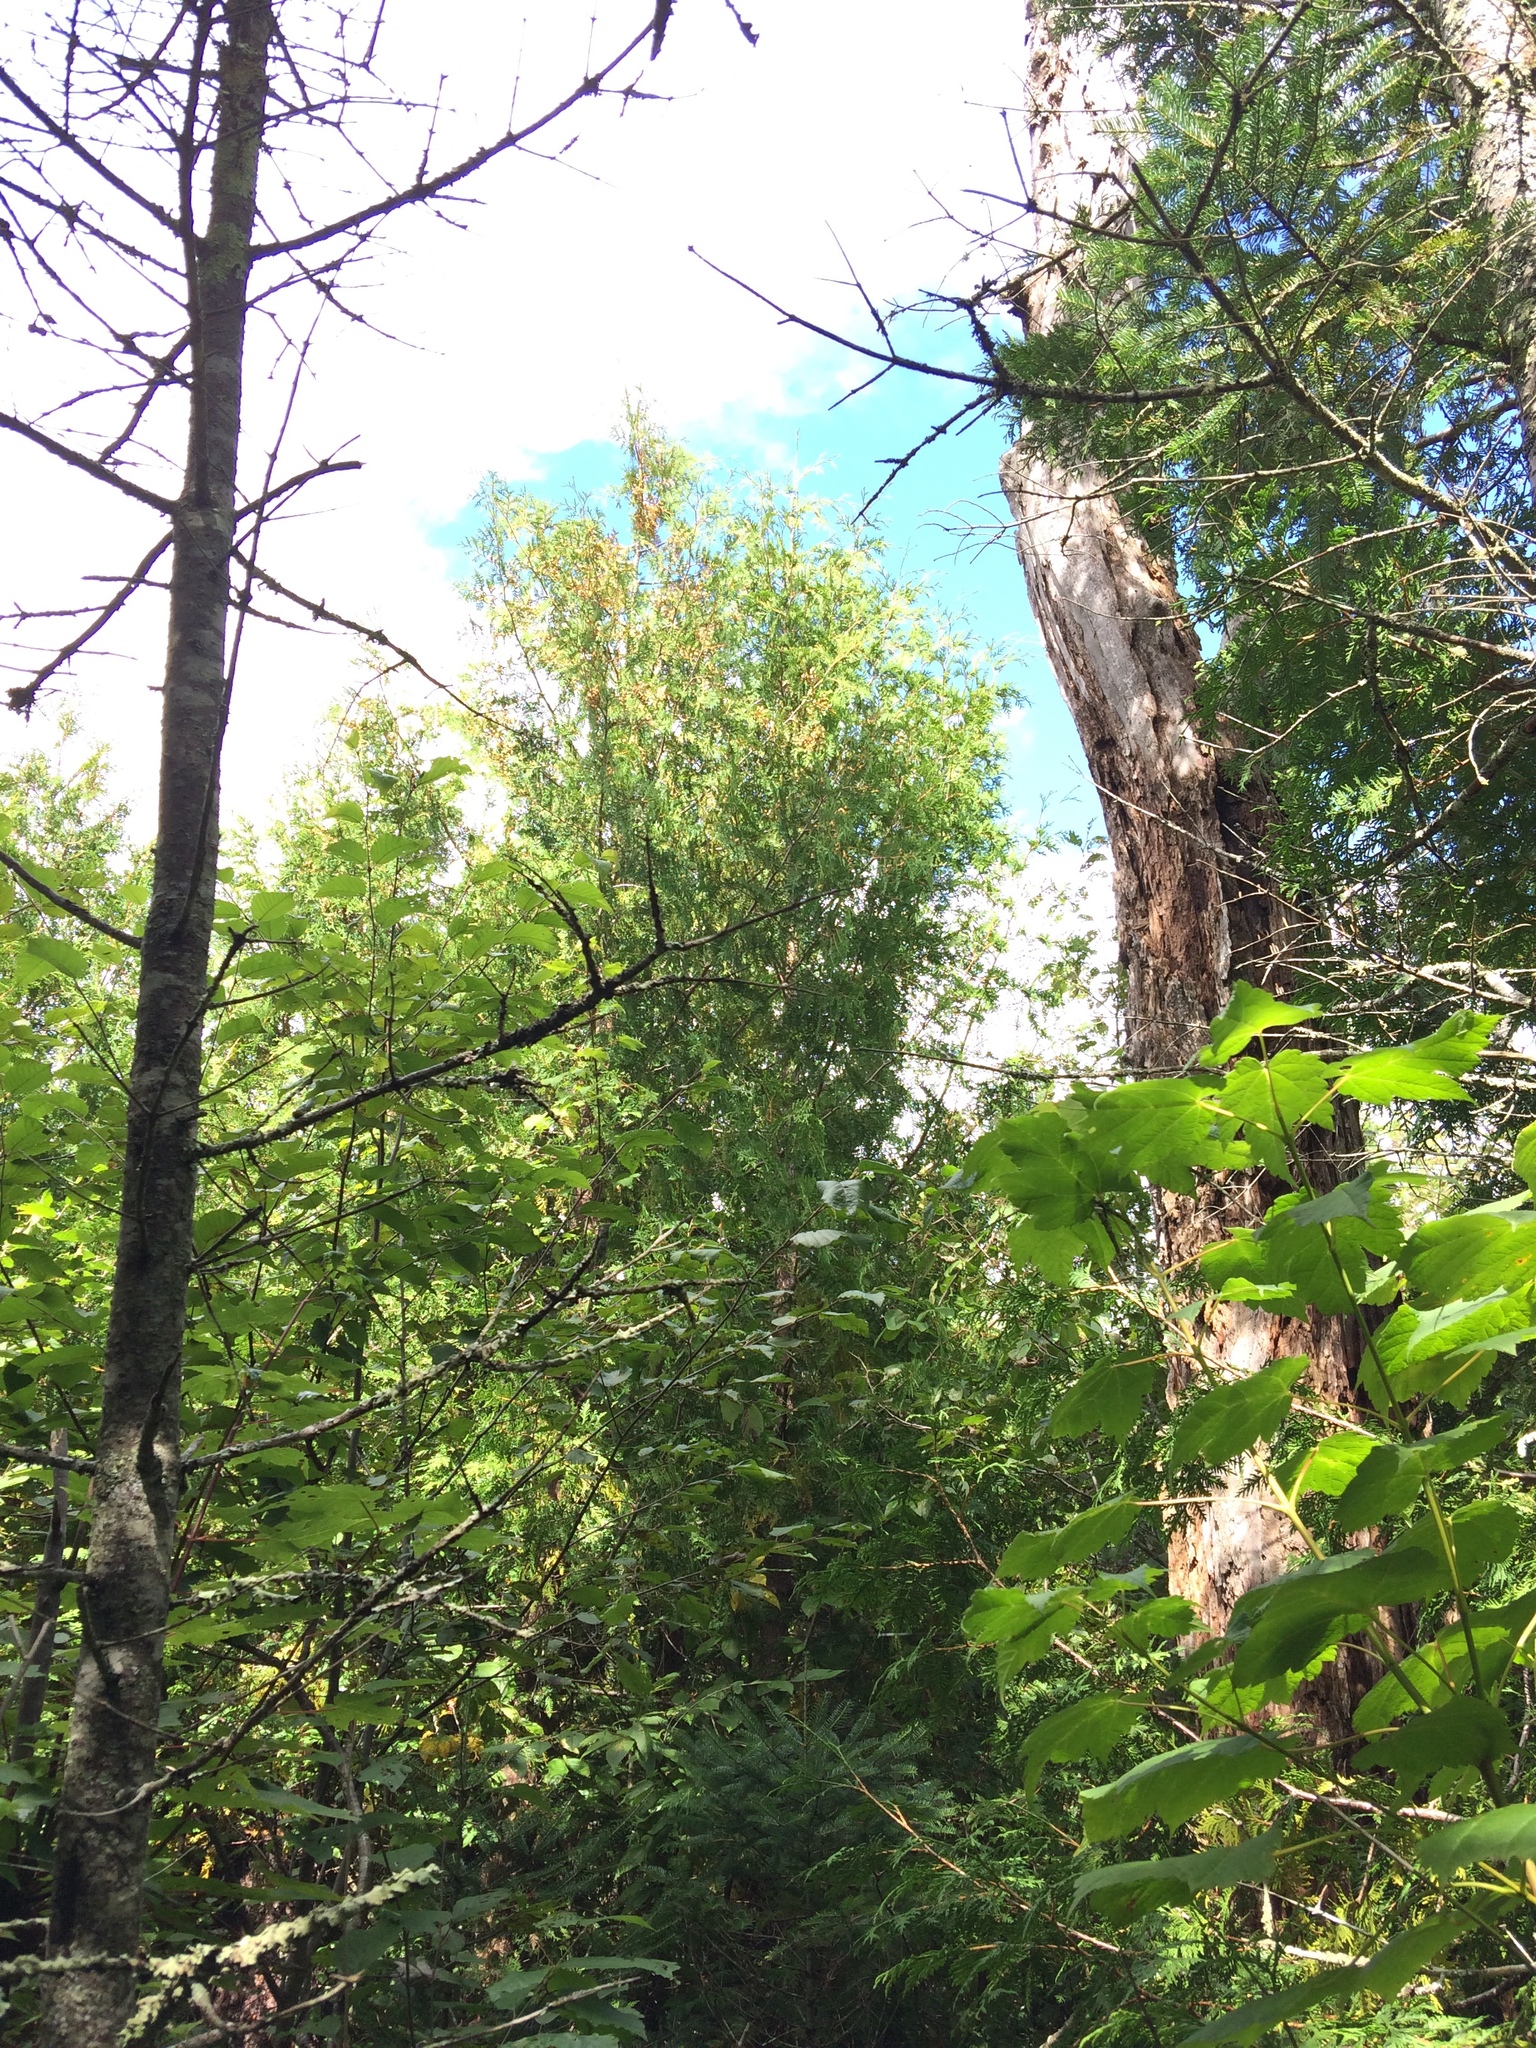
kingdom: Plantae
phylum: Tracheophyta
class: Pinopsida
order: Pinales
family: Cupressaceae
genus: Thuja
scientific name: Thuja occidentalis
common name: Northern white-cedar
